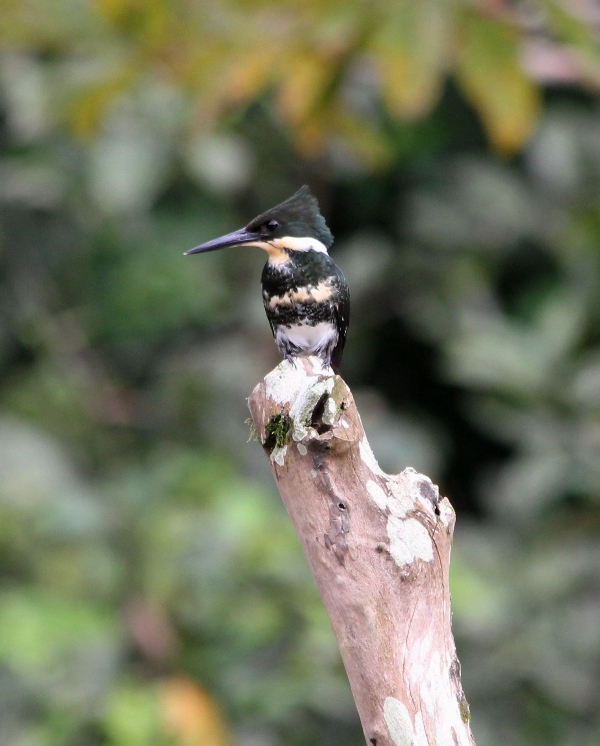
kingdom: Animalia
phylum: Chordata
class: Aves
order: Coraciiformes
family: Alcedinidae
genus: Chloroceryle
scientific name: Chloroceryle americana
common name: Green kingfisher
